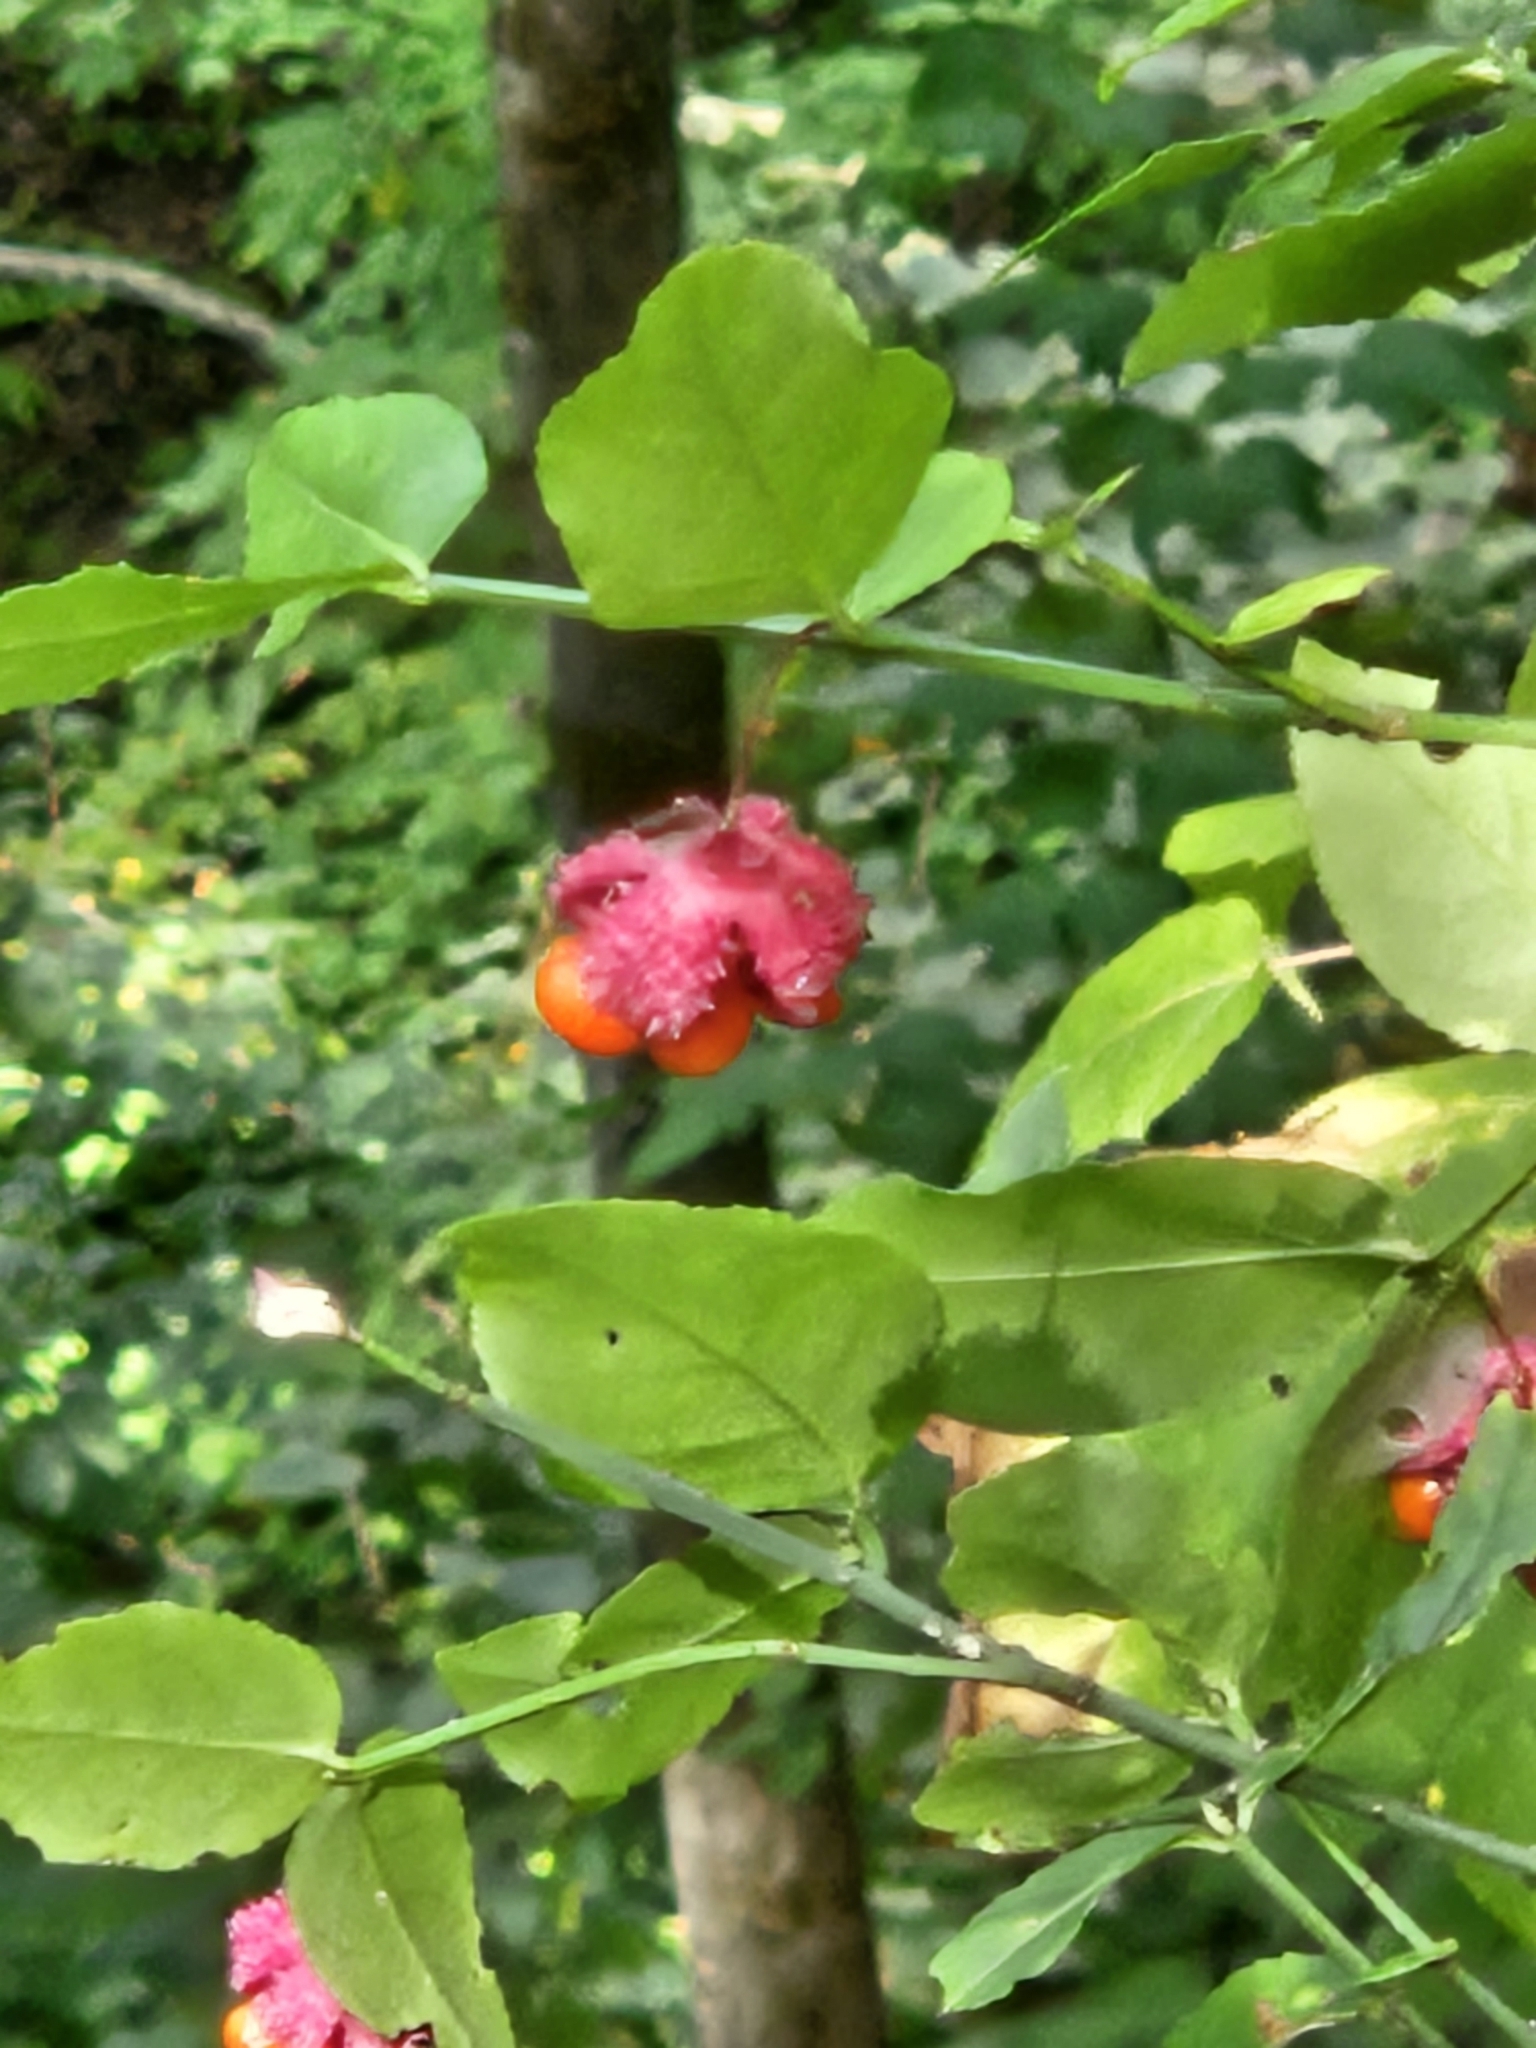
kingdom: Plantae
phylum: Tracheophyta
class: Magnoliopsida
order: Celastrales
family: Celastraceae
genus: Euonymus
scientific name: Euonymus americanus
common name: Bursting-heart
